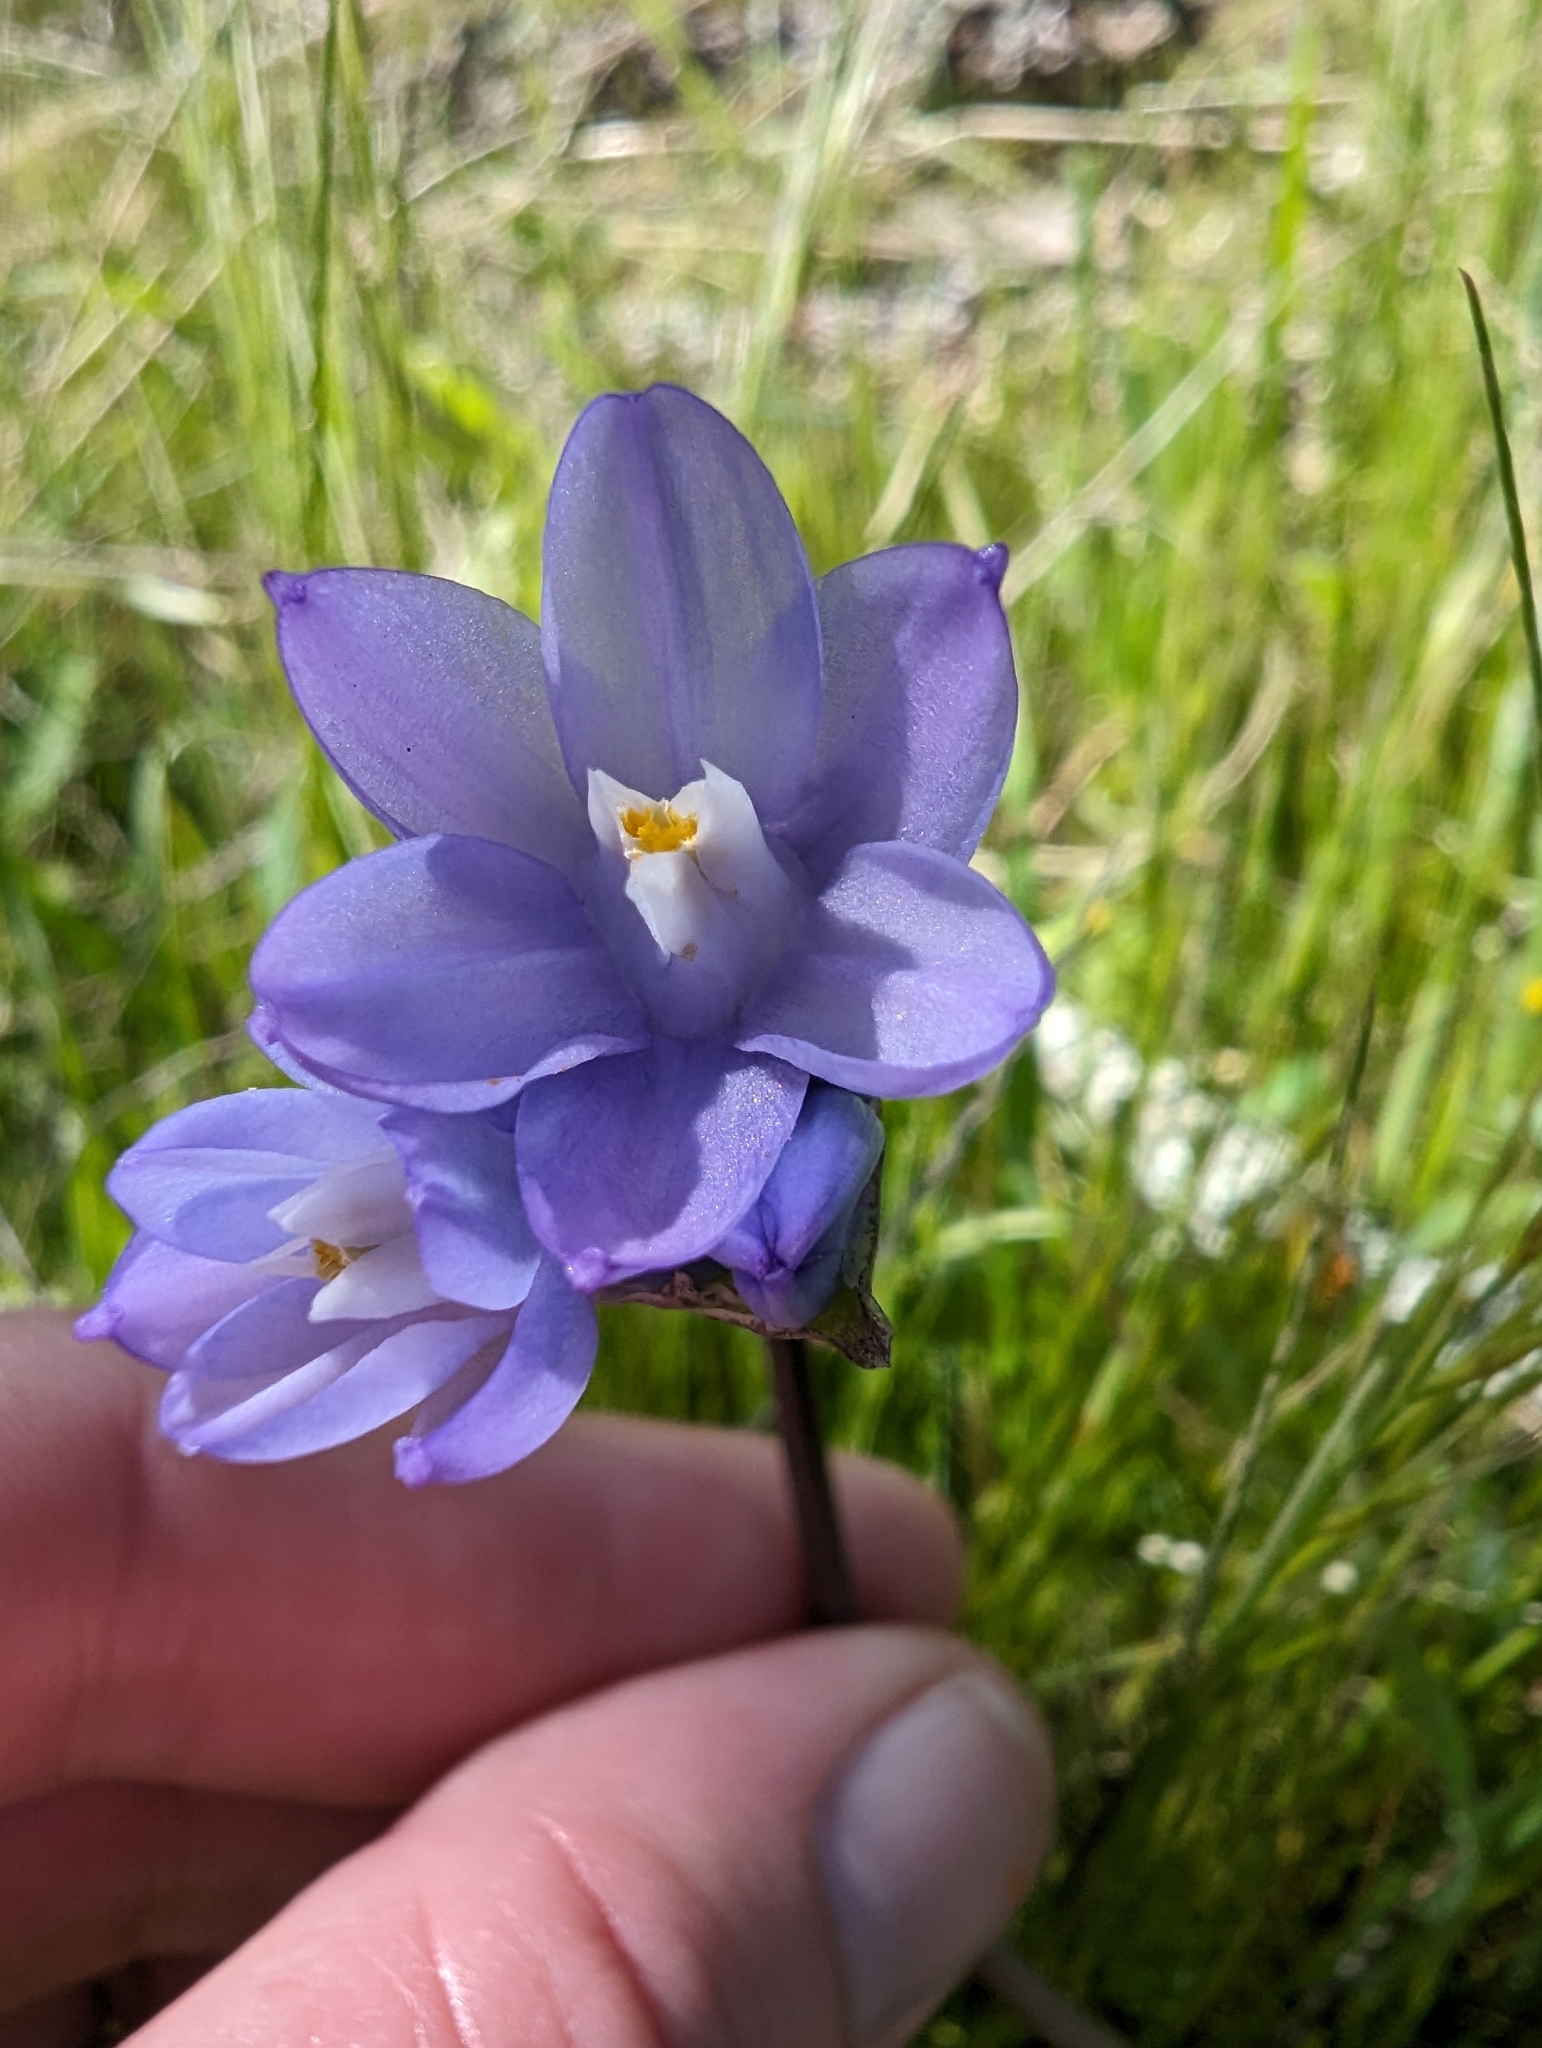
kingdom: Plantae
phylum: Tracheophyta
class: Liliopsida
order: Asparagales
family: Asparagaceae
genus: Dipterostemon
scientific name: Dipterostemon capitatus
